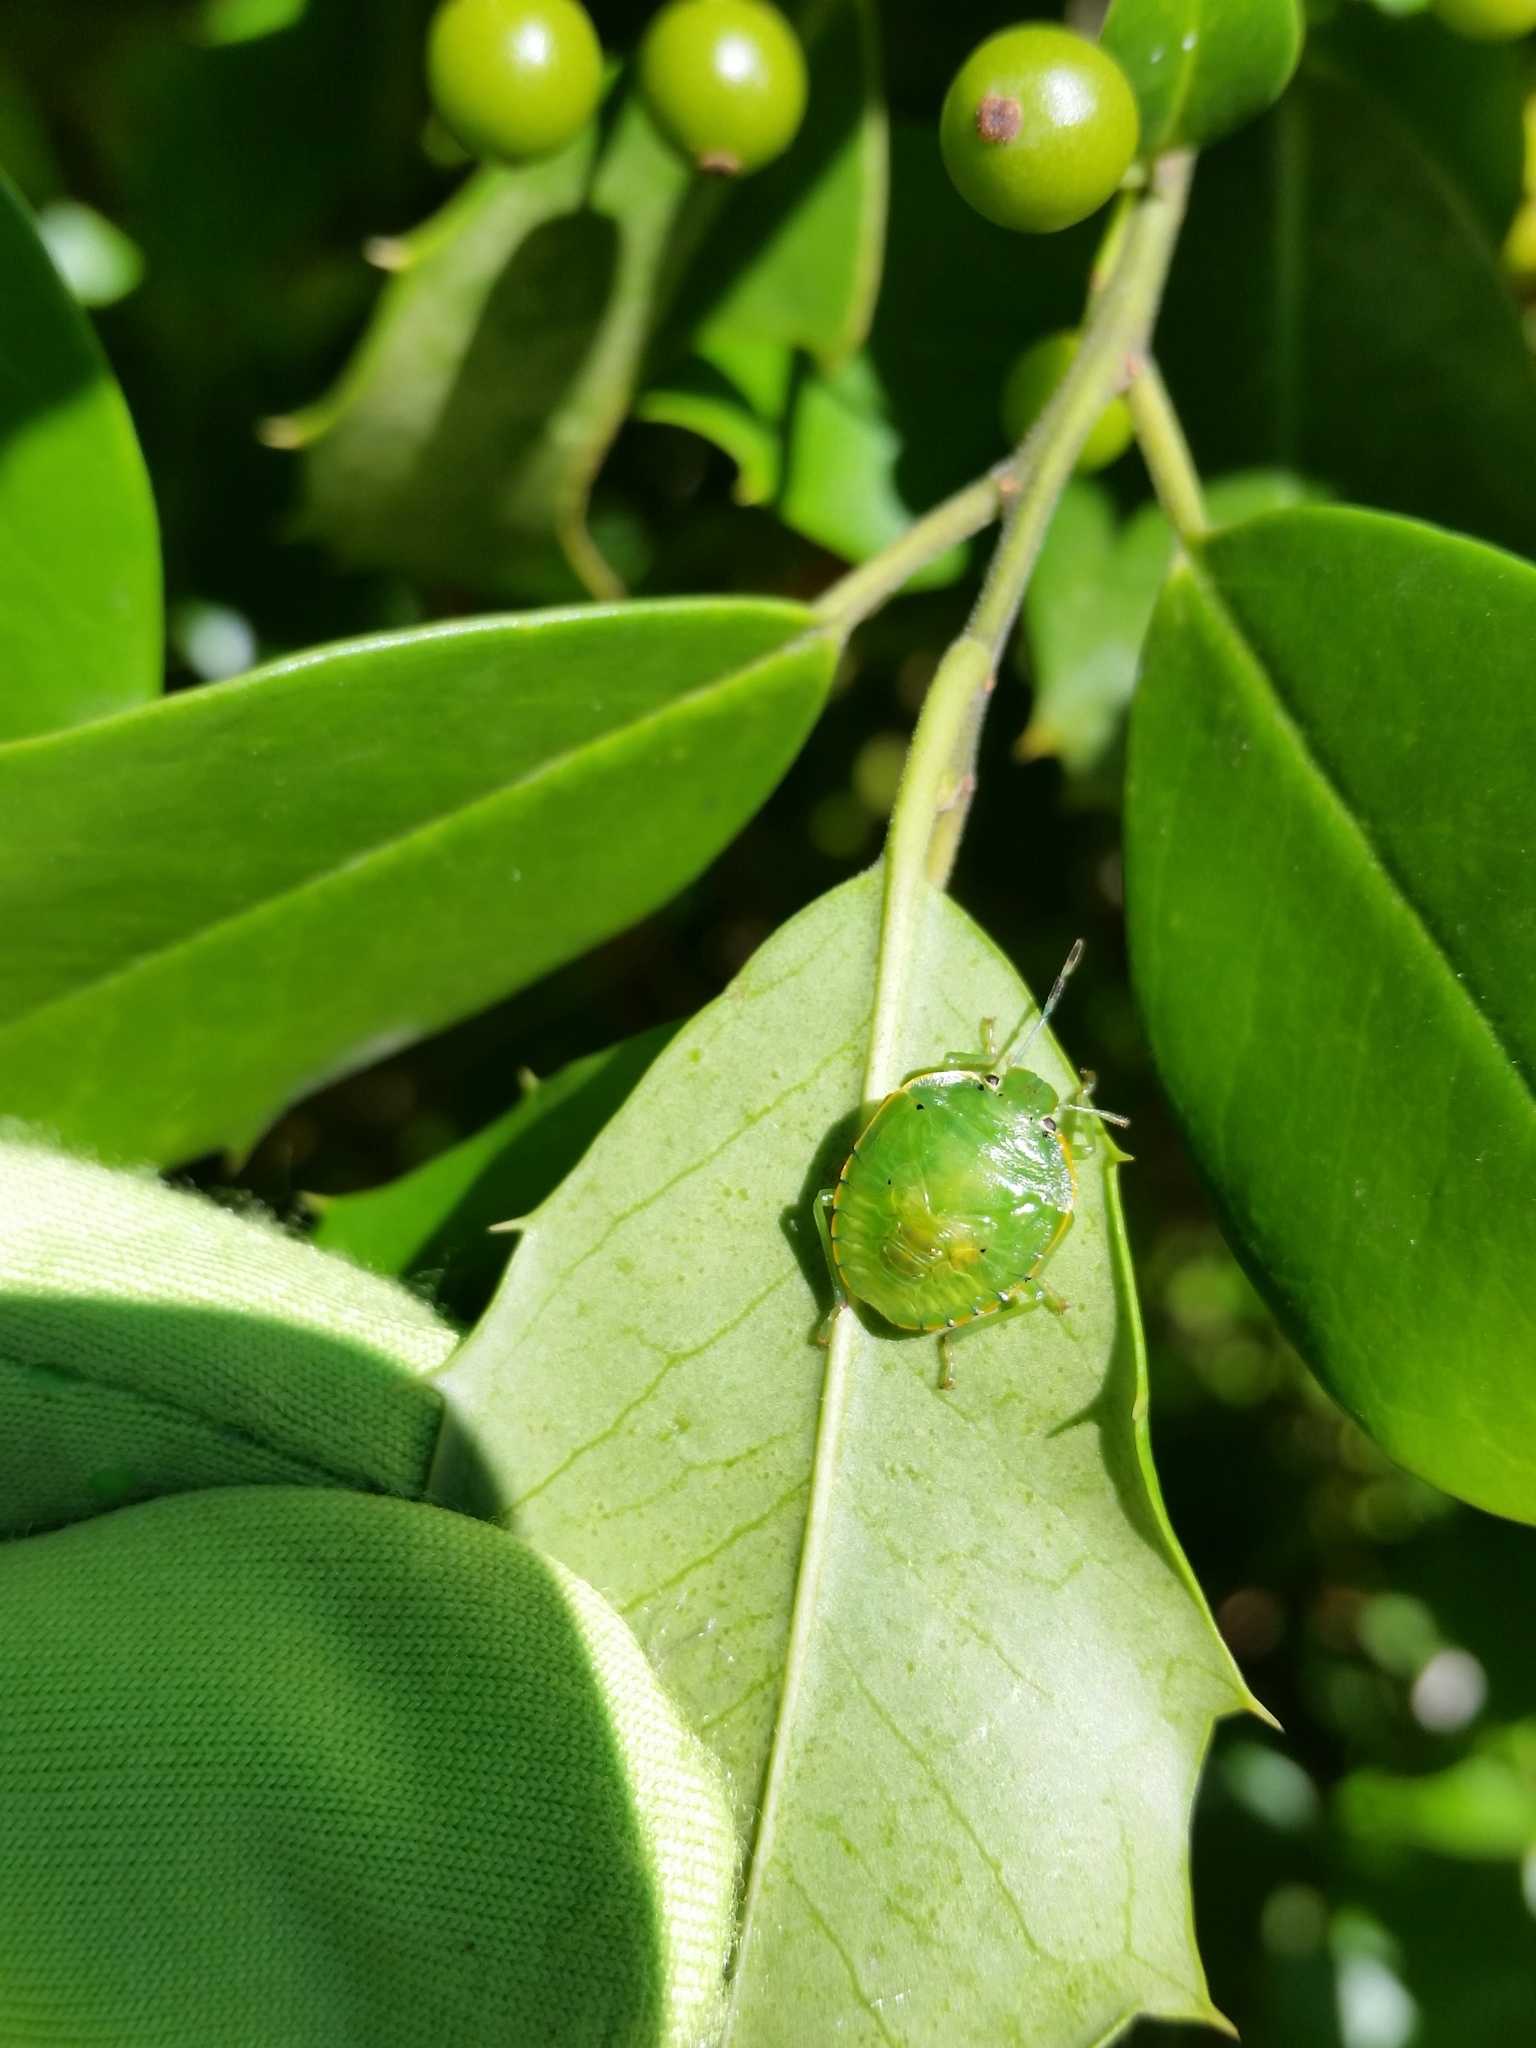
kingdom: Animalia
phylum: Arthropoda
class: Insecta
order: Hemiptera
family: Pentatomidae
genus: Chinavia
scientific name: Chinavia hilaris
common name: Green stink bug
